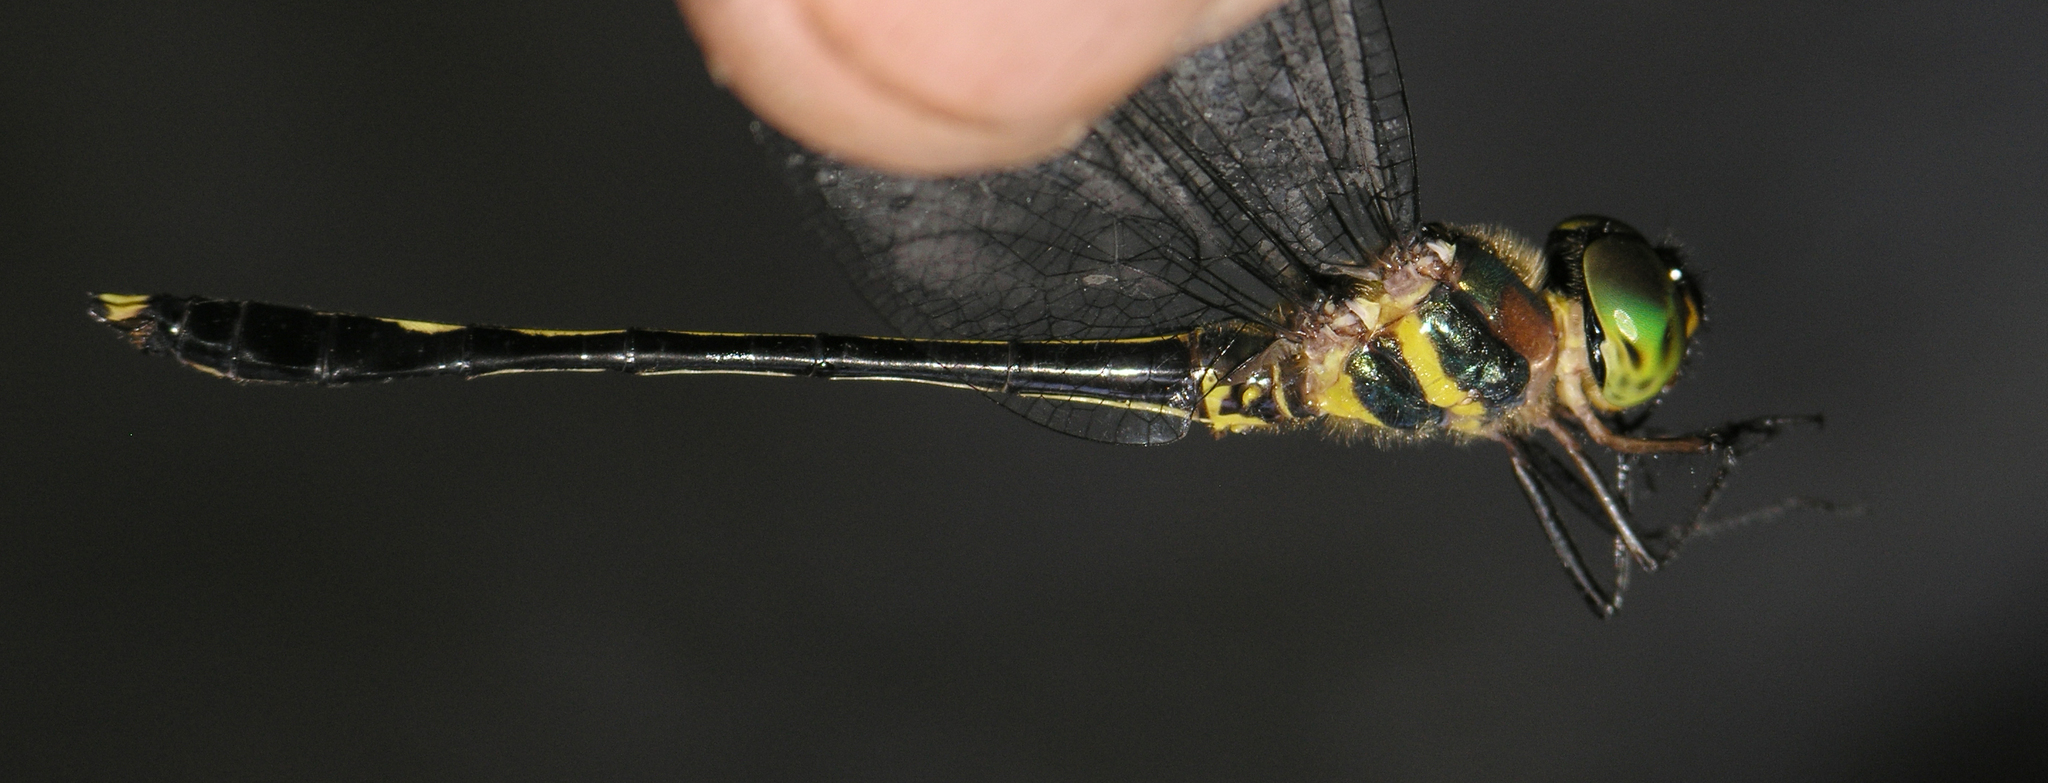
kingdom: Animalia
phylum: Arthropoda
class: Insecta
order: Odonata
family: Corduliidae
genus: Macromidia
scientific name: Macromidia rapida
